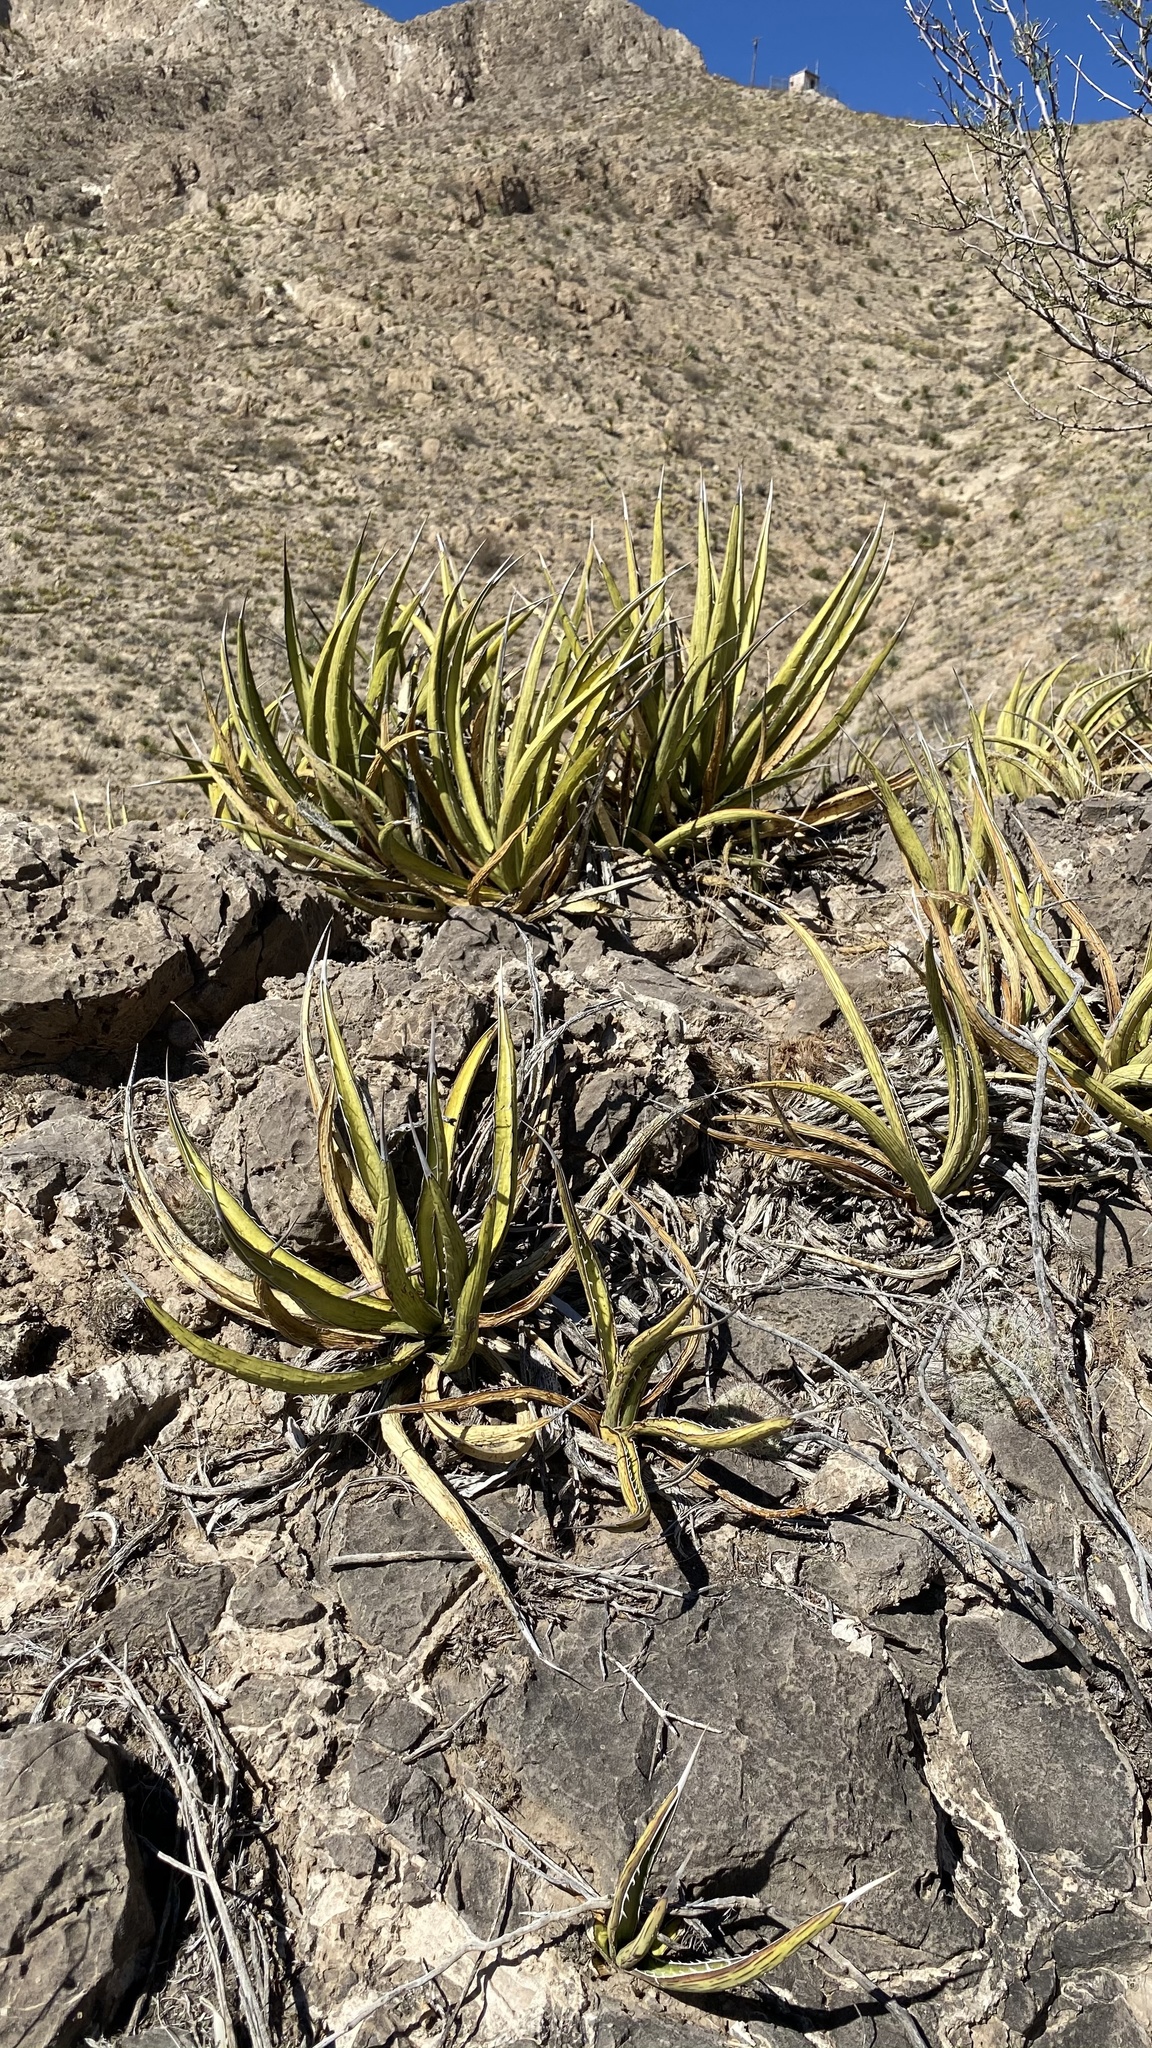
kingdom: Plantae
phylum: Tracheophyta
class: Liliopsida
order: Asparagales
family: Asparagaceae
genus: Agave
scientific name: Agave lechuguilla
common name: Lecheguilla agave
